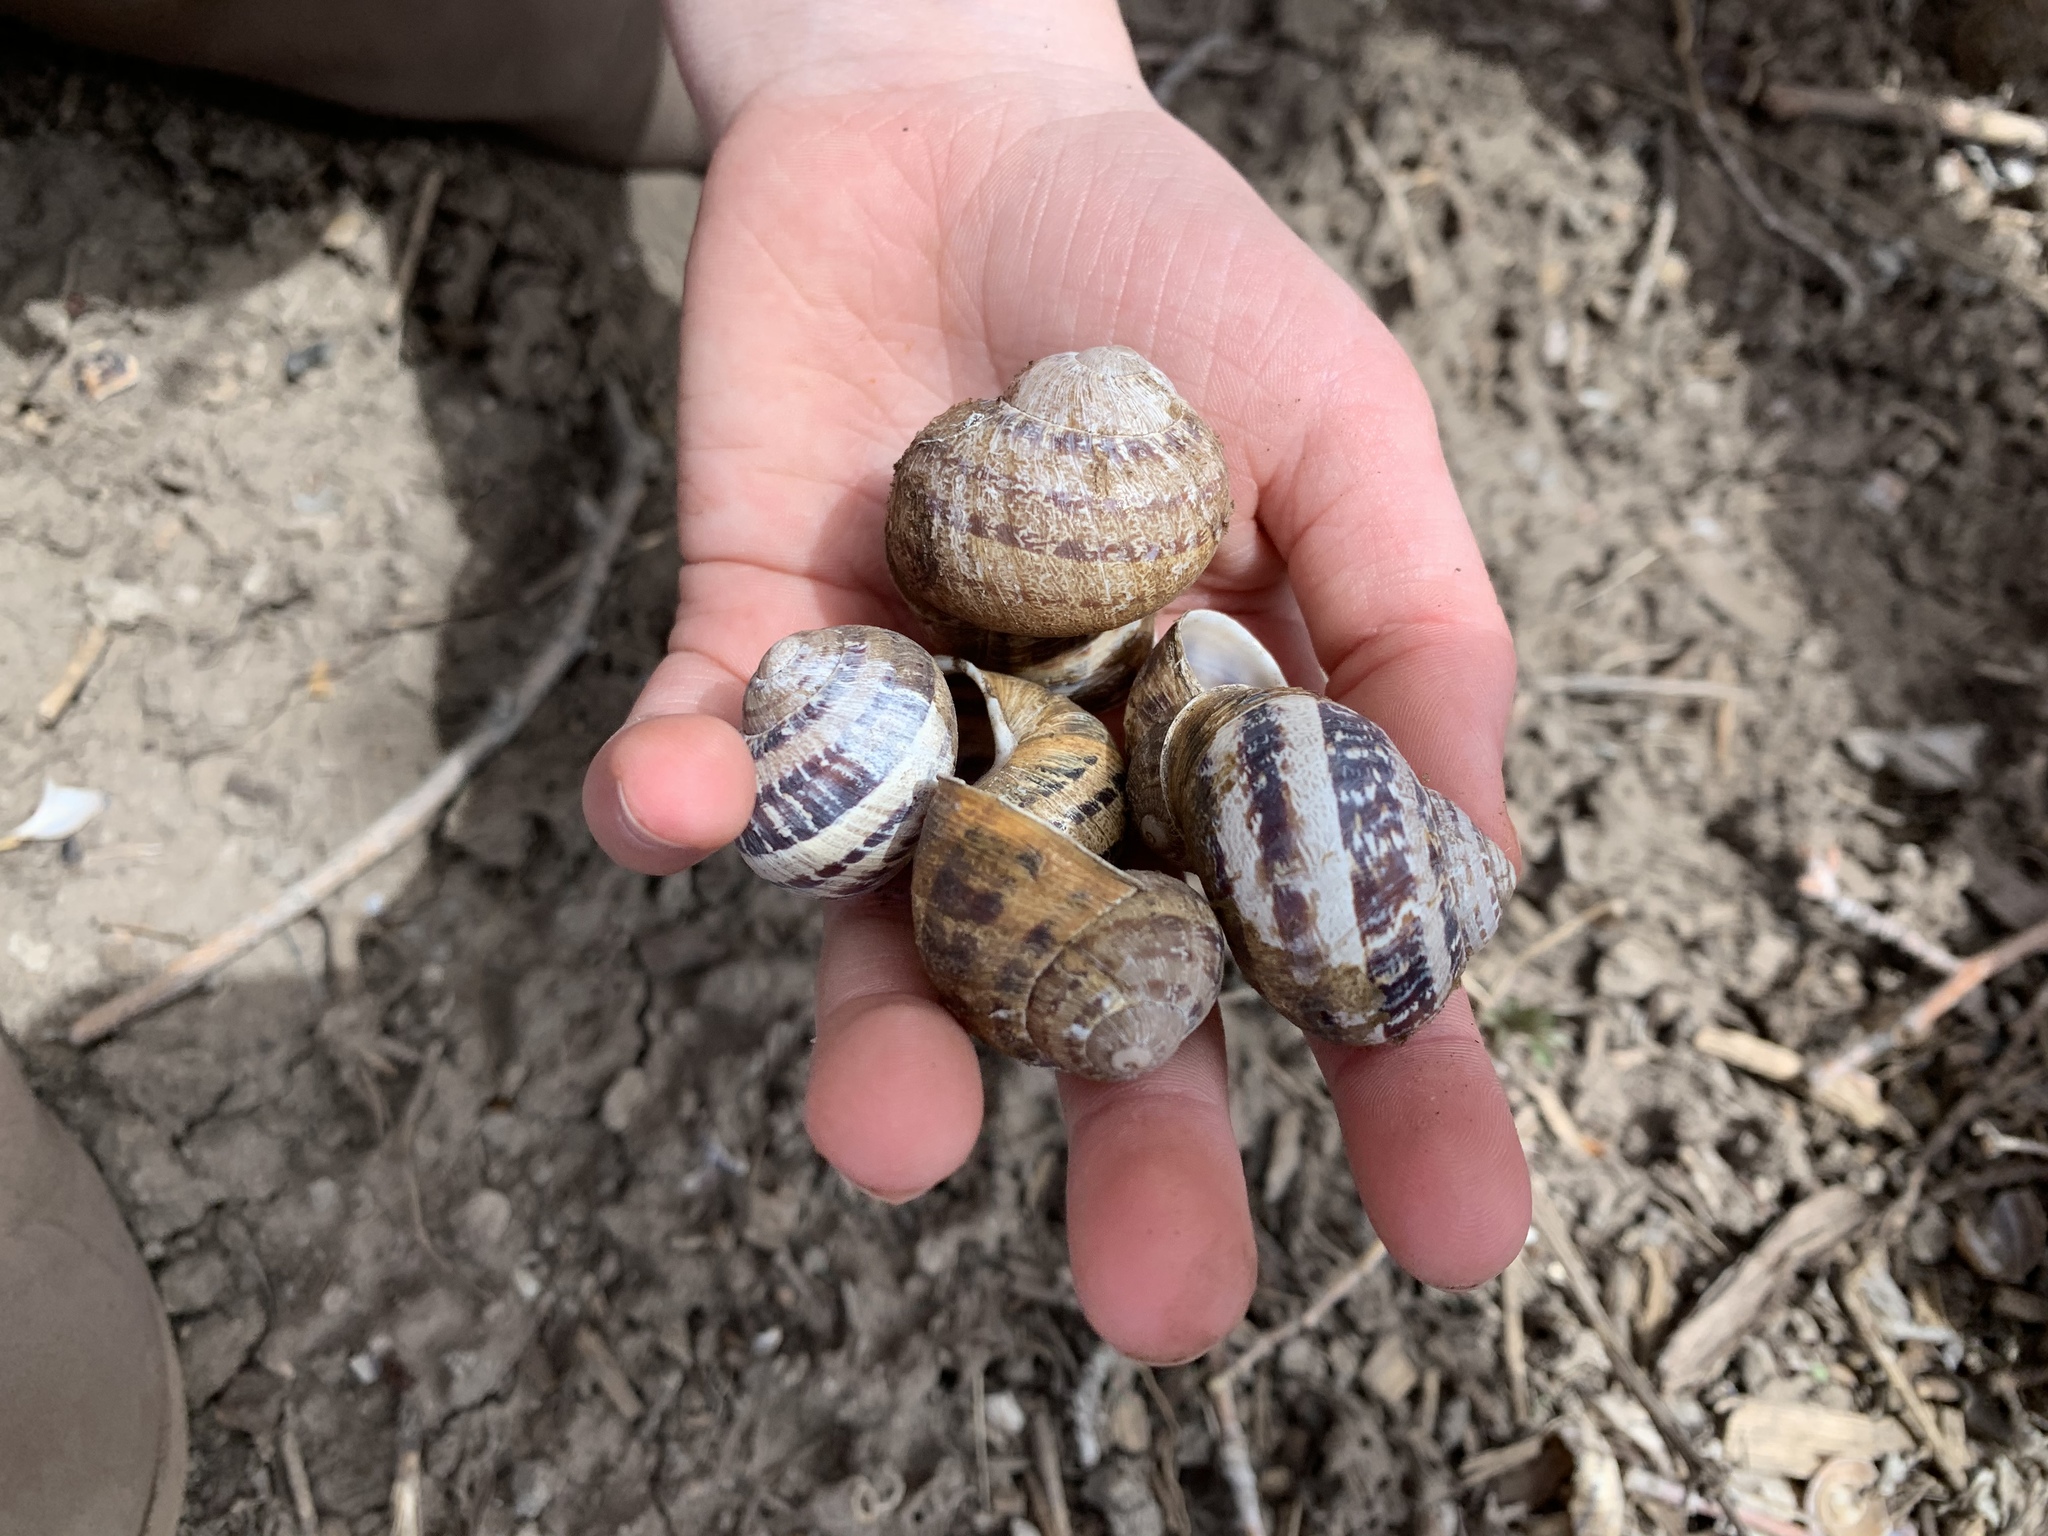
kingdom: Animalia
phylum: Mollusca
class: Gastropoda
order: Stylommatophora
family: Helicidae
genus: Cornu
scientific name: Cornu aspersum
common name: Brown garden snail
